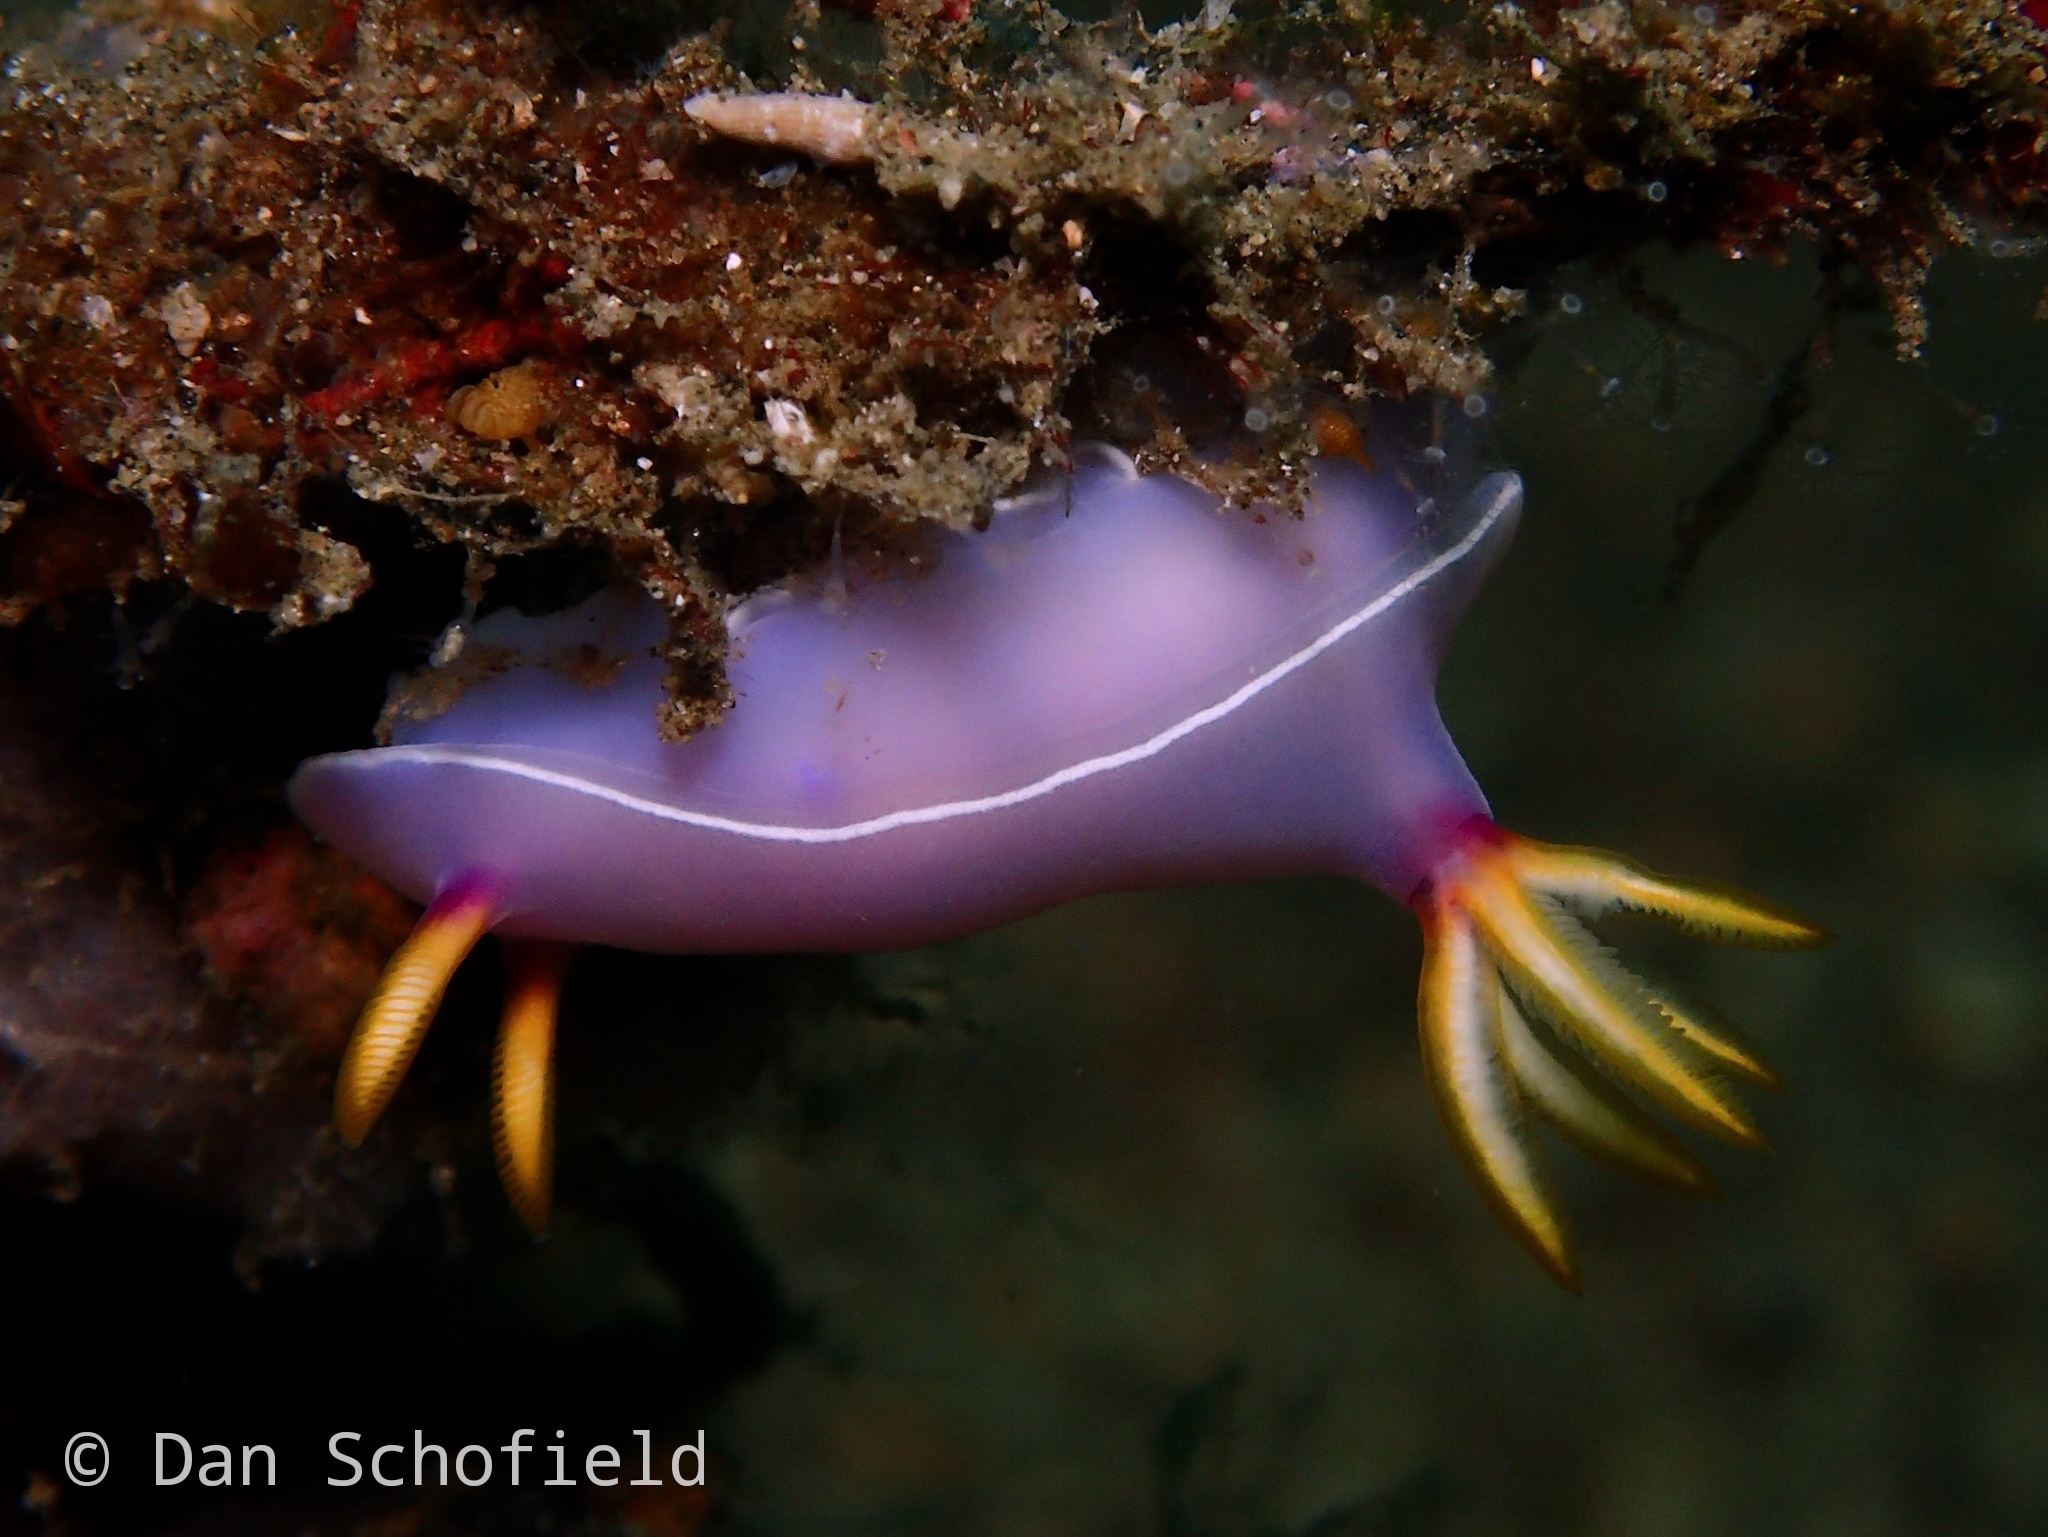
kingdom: Animalia
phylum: Mollusca
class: Gastropoda
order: Nudibranchia
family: Chromodorididae
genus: Hypselodoris
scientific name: Hypselodoris bullockii
